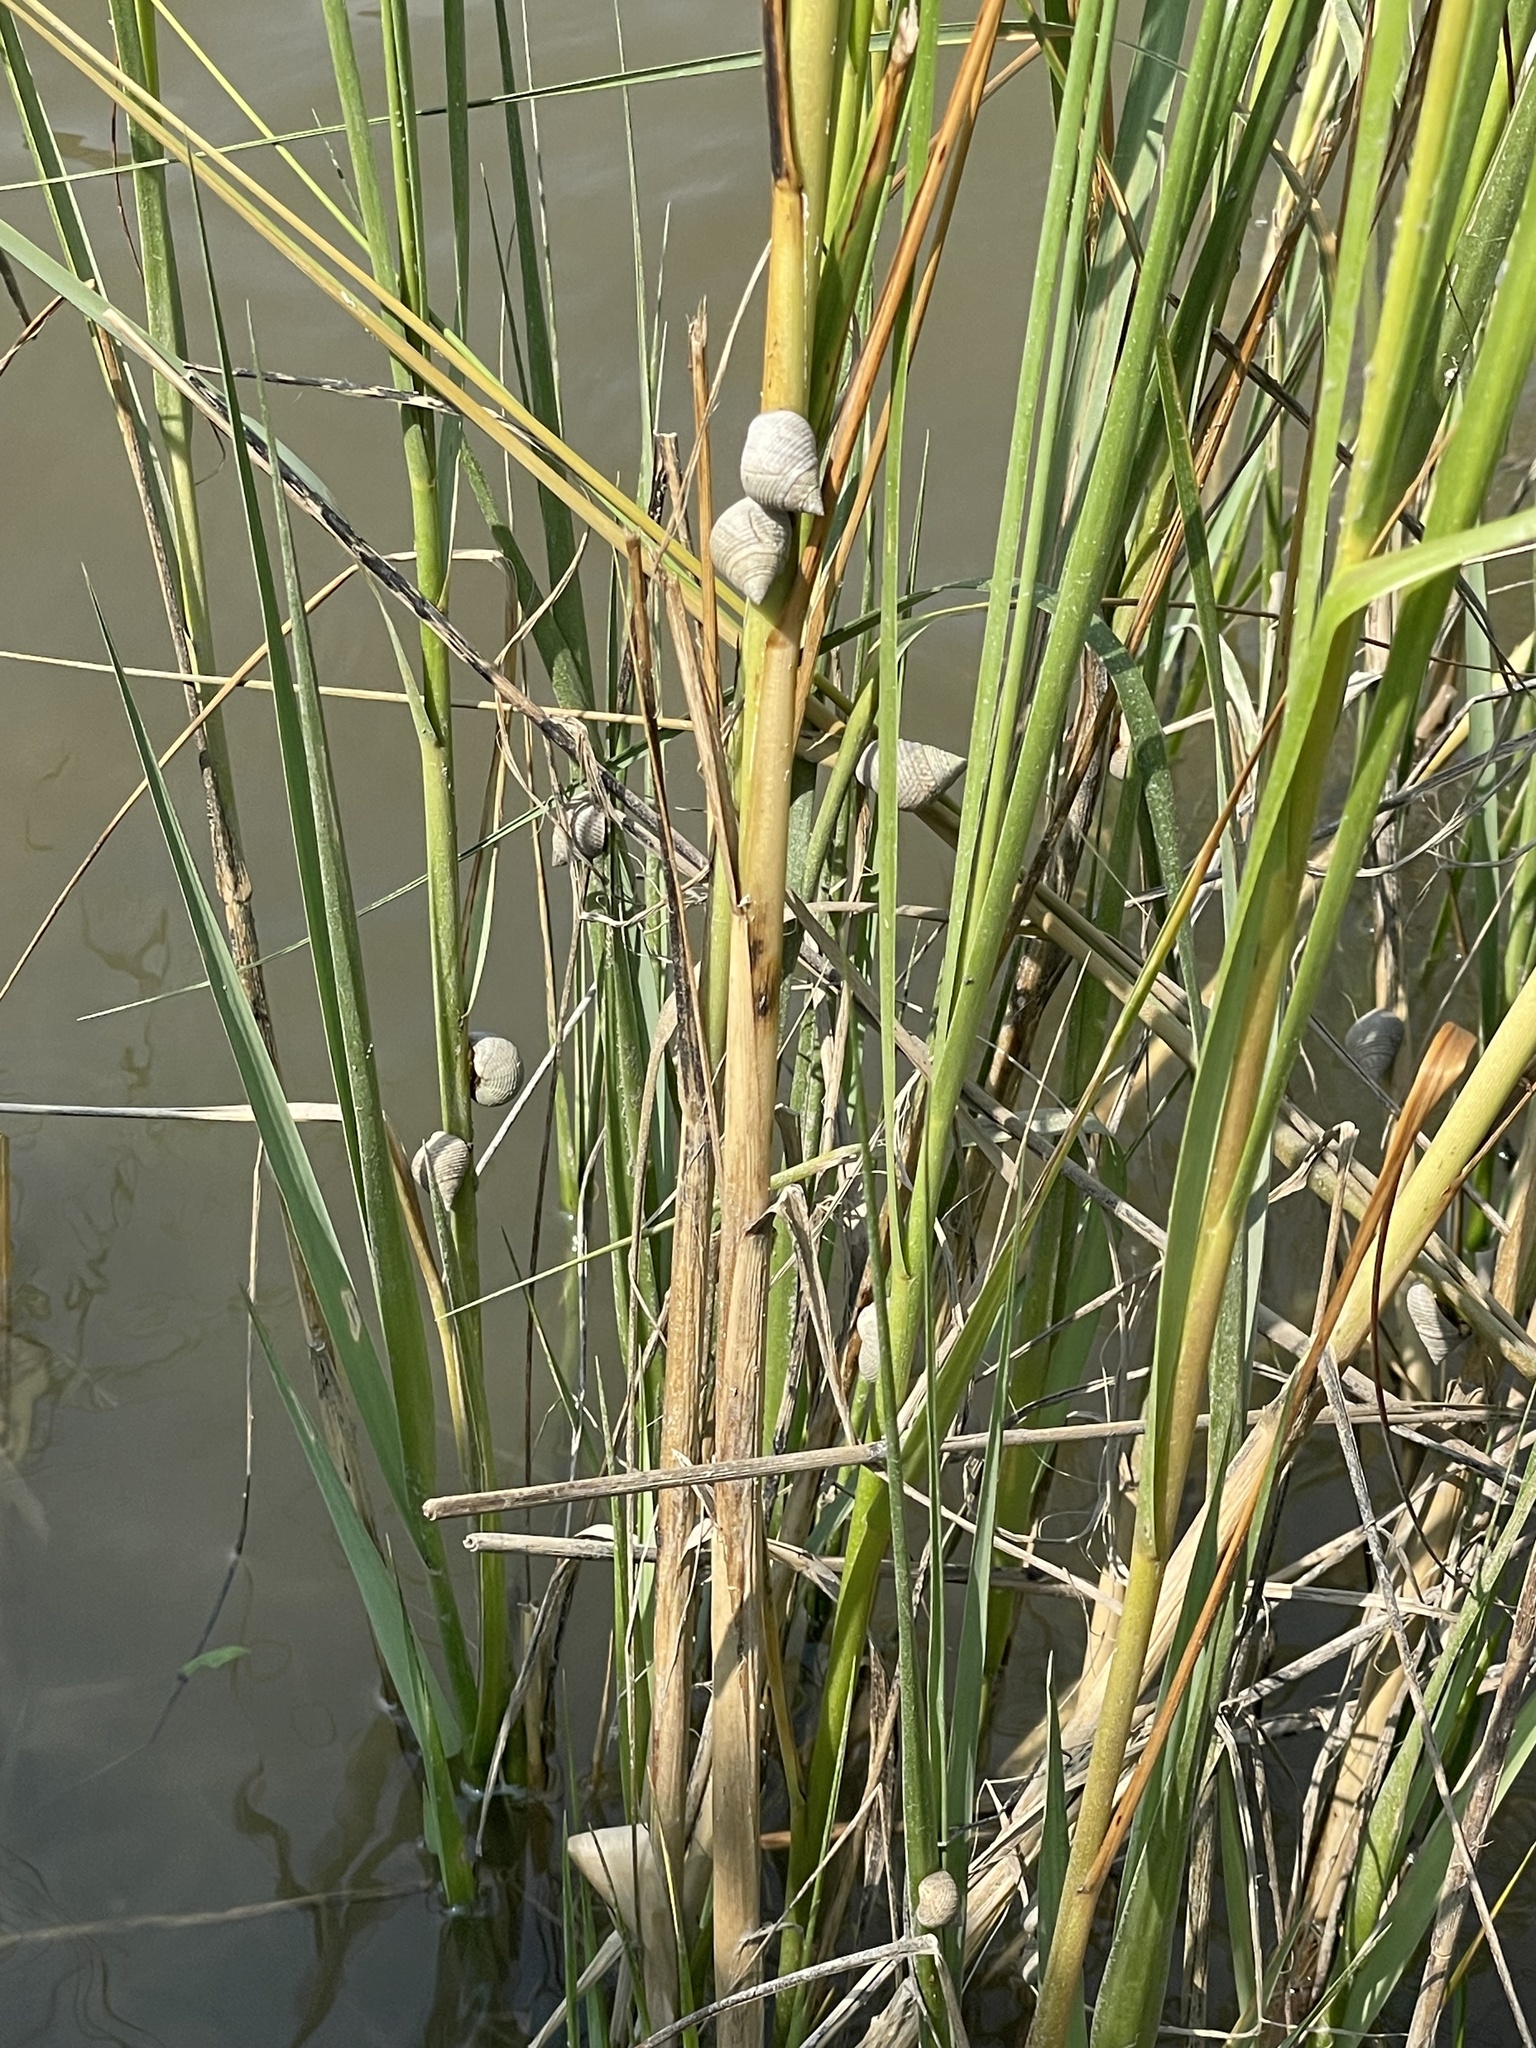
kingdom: Animalia
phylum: Mollusca
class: Gastropoda
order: Littorinimorpha
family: Littorinidae
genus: Littoraria
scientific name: Littoraria irrorata
